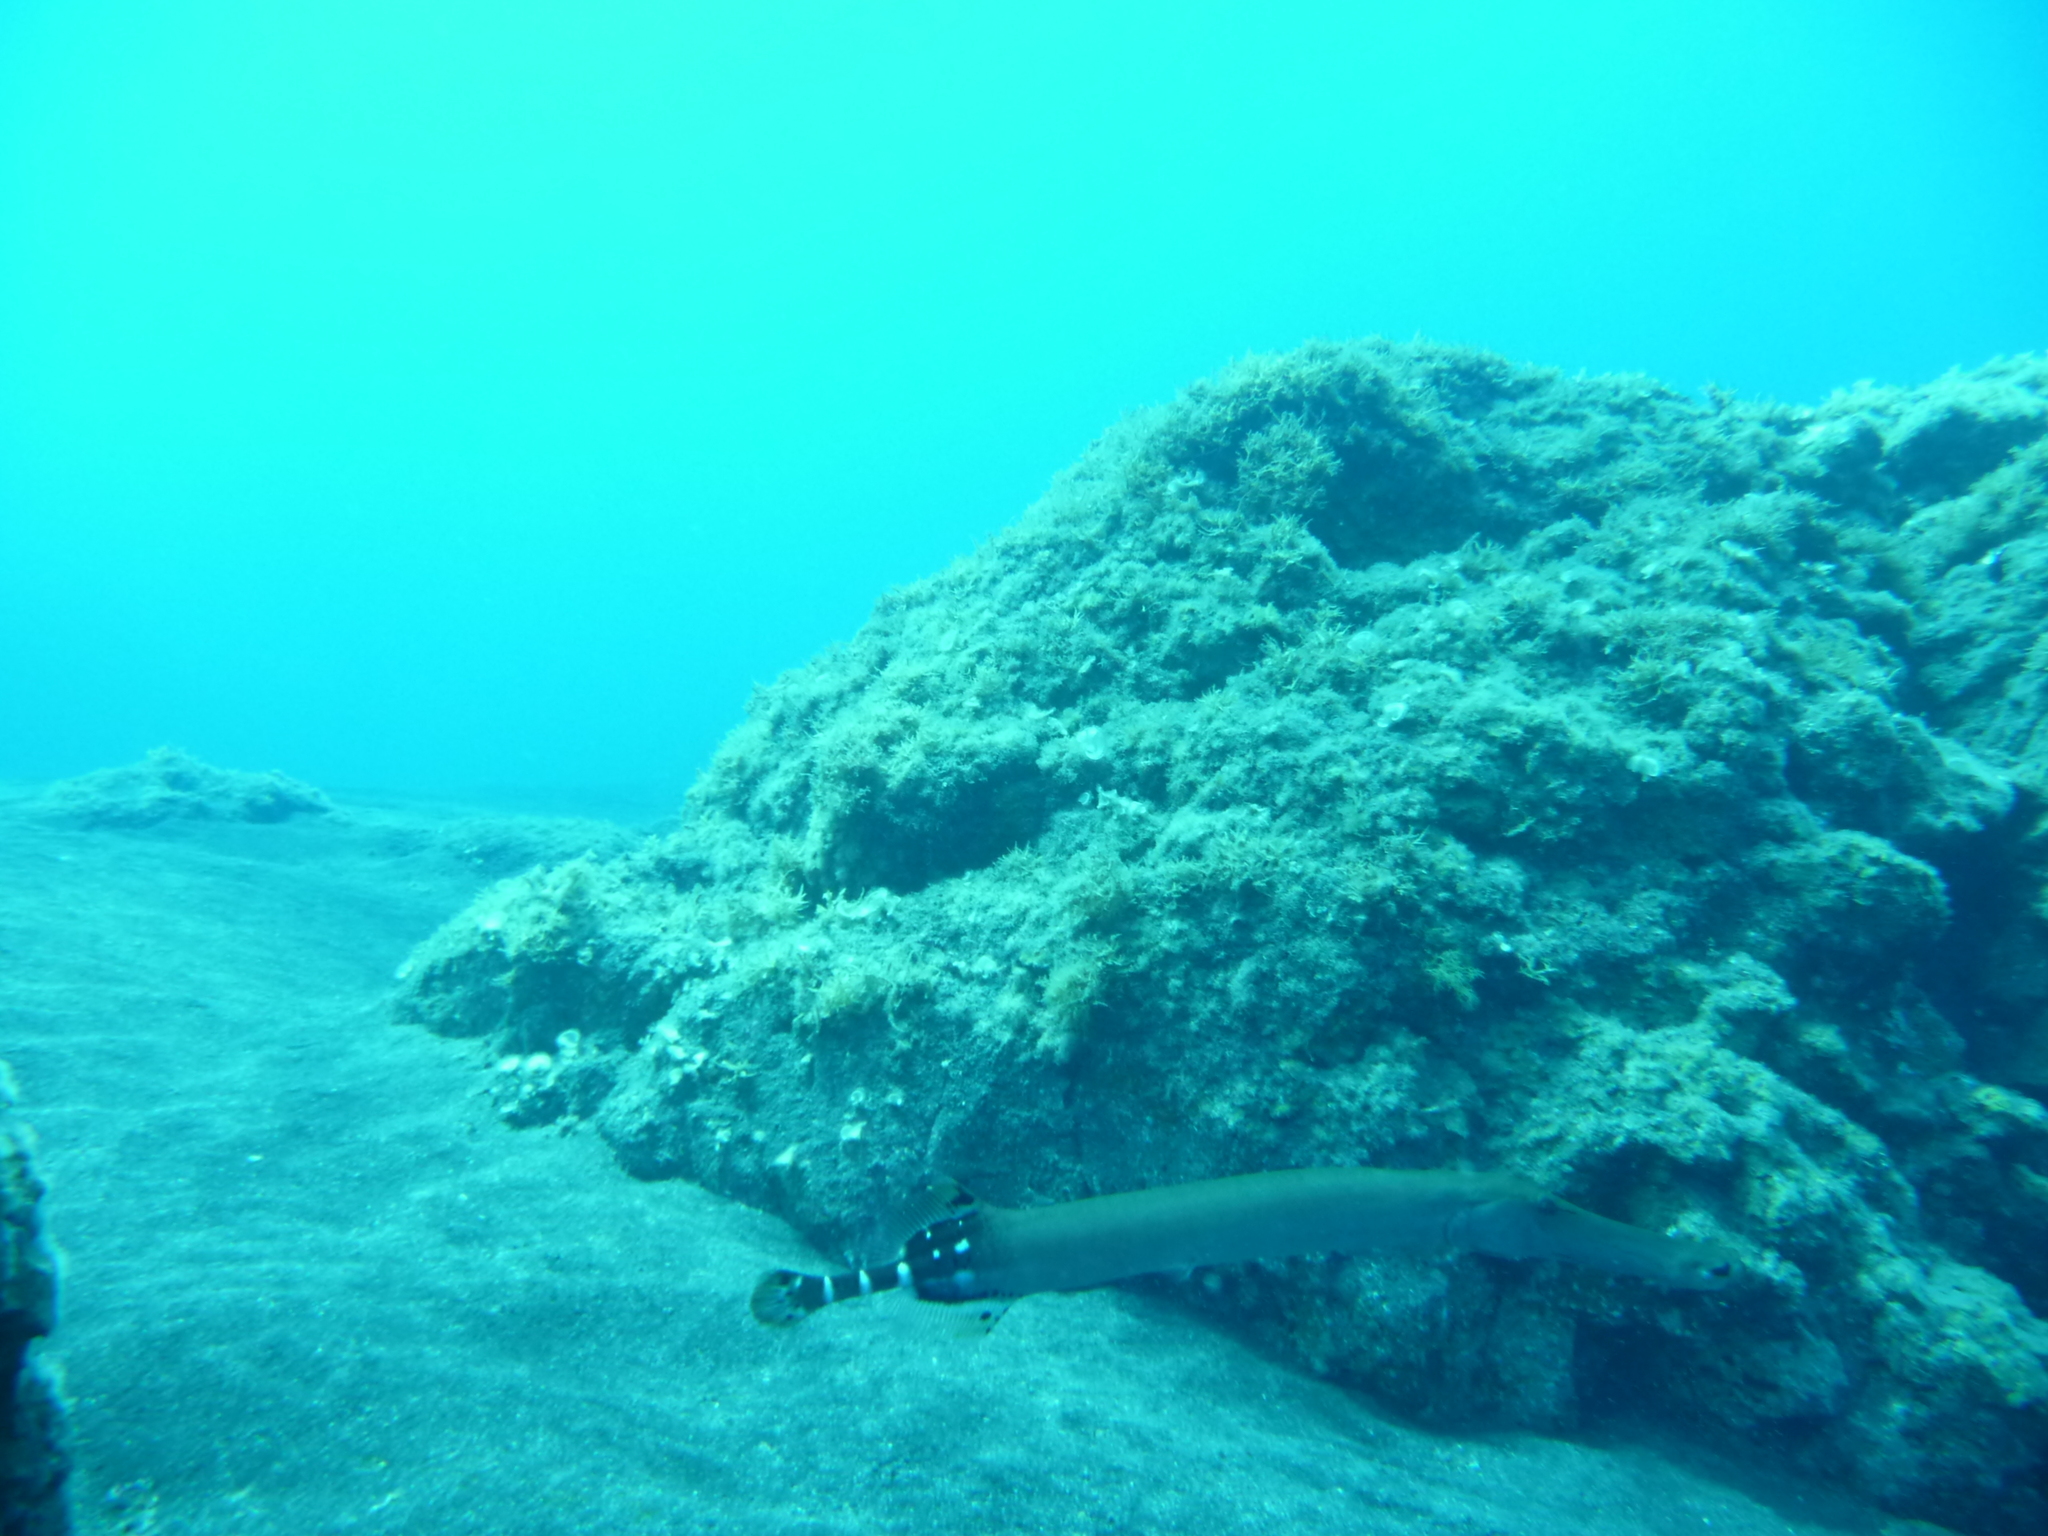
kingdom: Animalia
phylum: Chordata
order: Syngnathiformes
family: Aulostomidae
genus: Aulostomus
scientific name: Aulostomus strigosus
